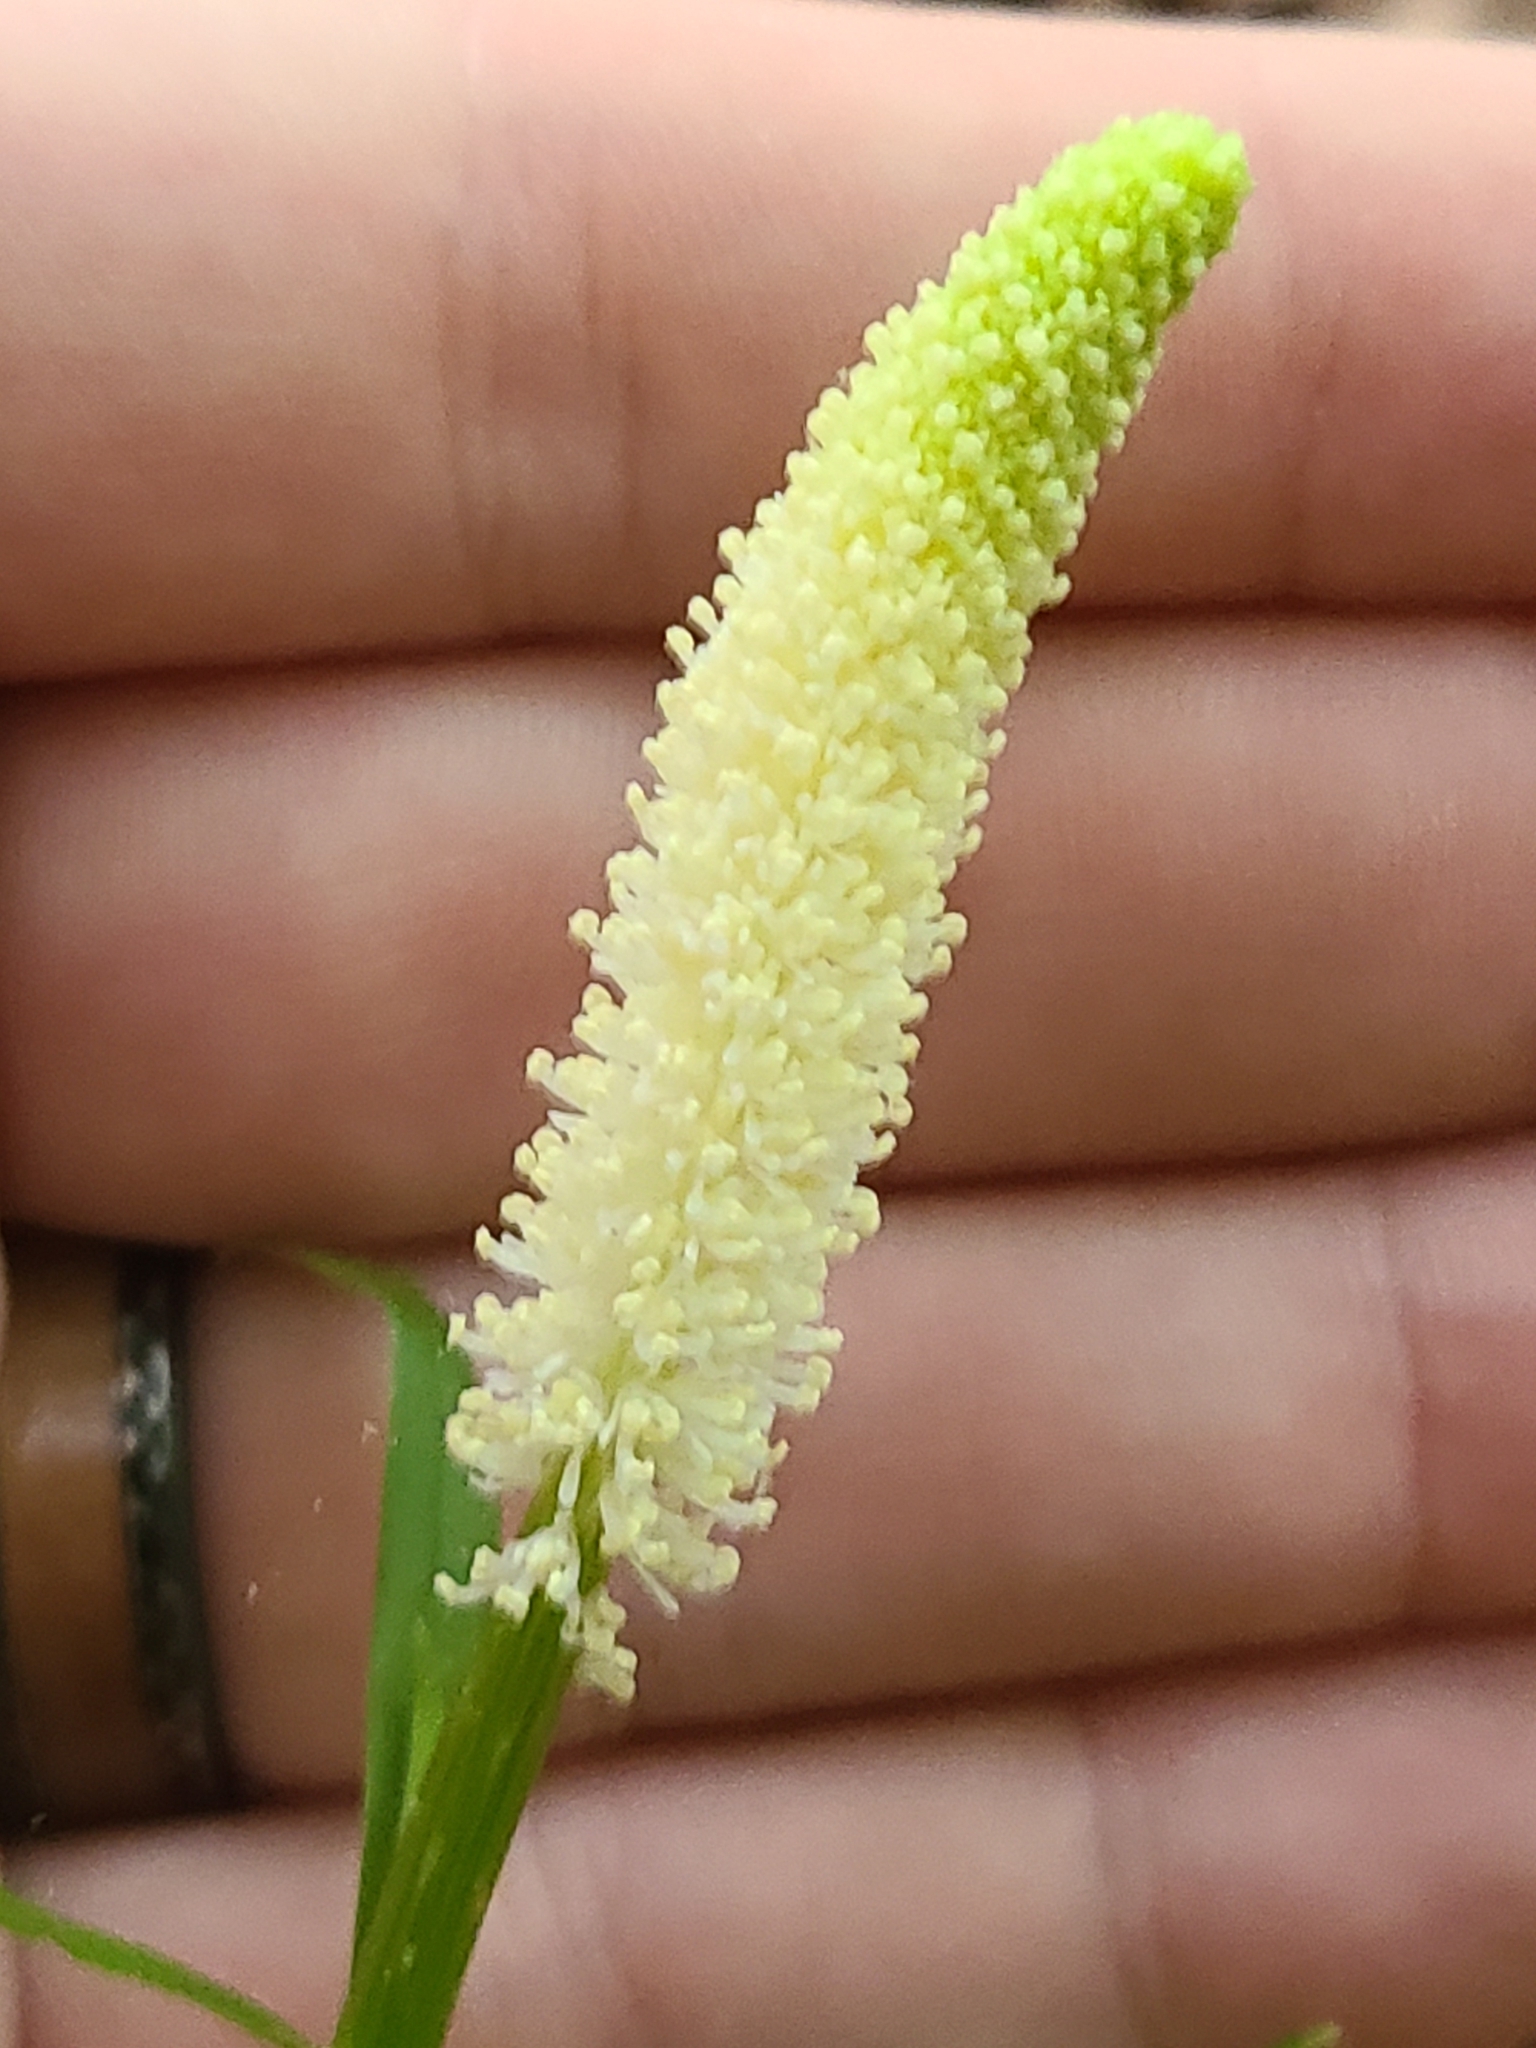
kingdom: Plantae
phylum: Tracheophyta
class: Liliopsida
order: Liliales
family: Melanthiaceae
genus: Chamaelirium
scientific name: Chamaelirium luteum
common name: Fairy-wand
